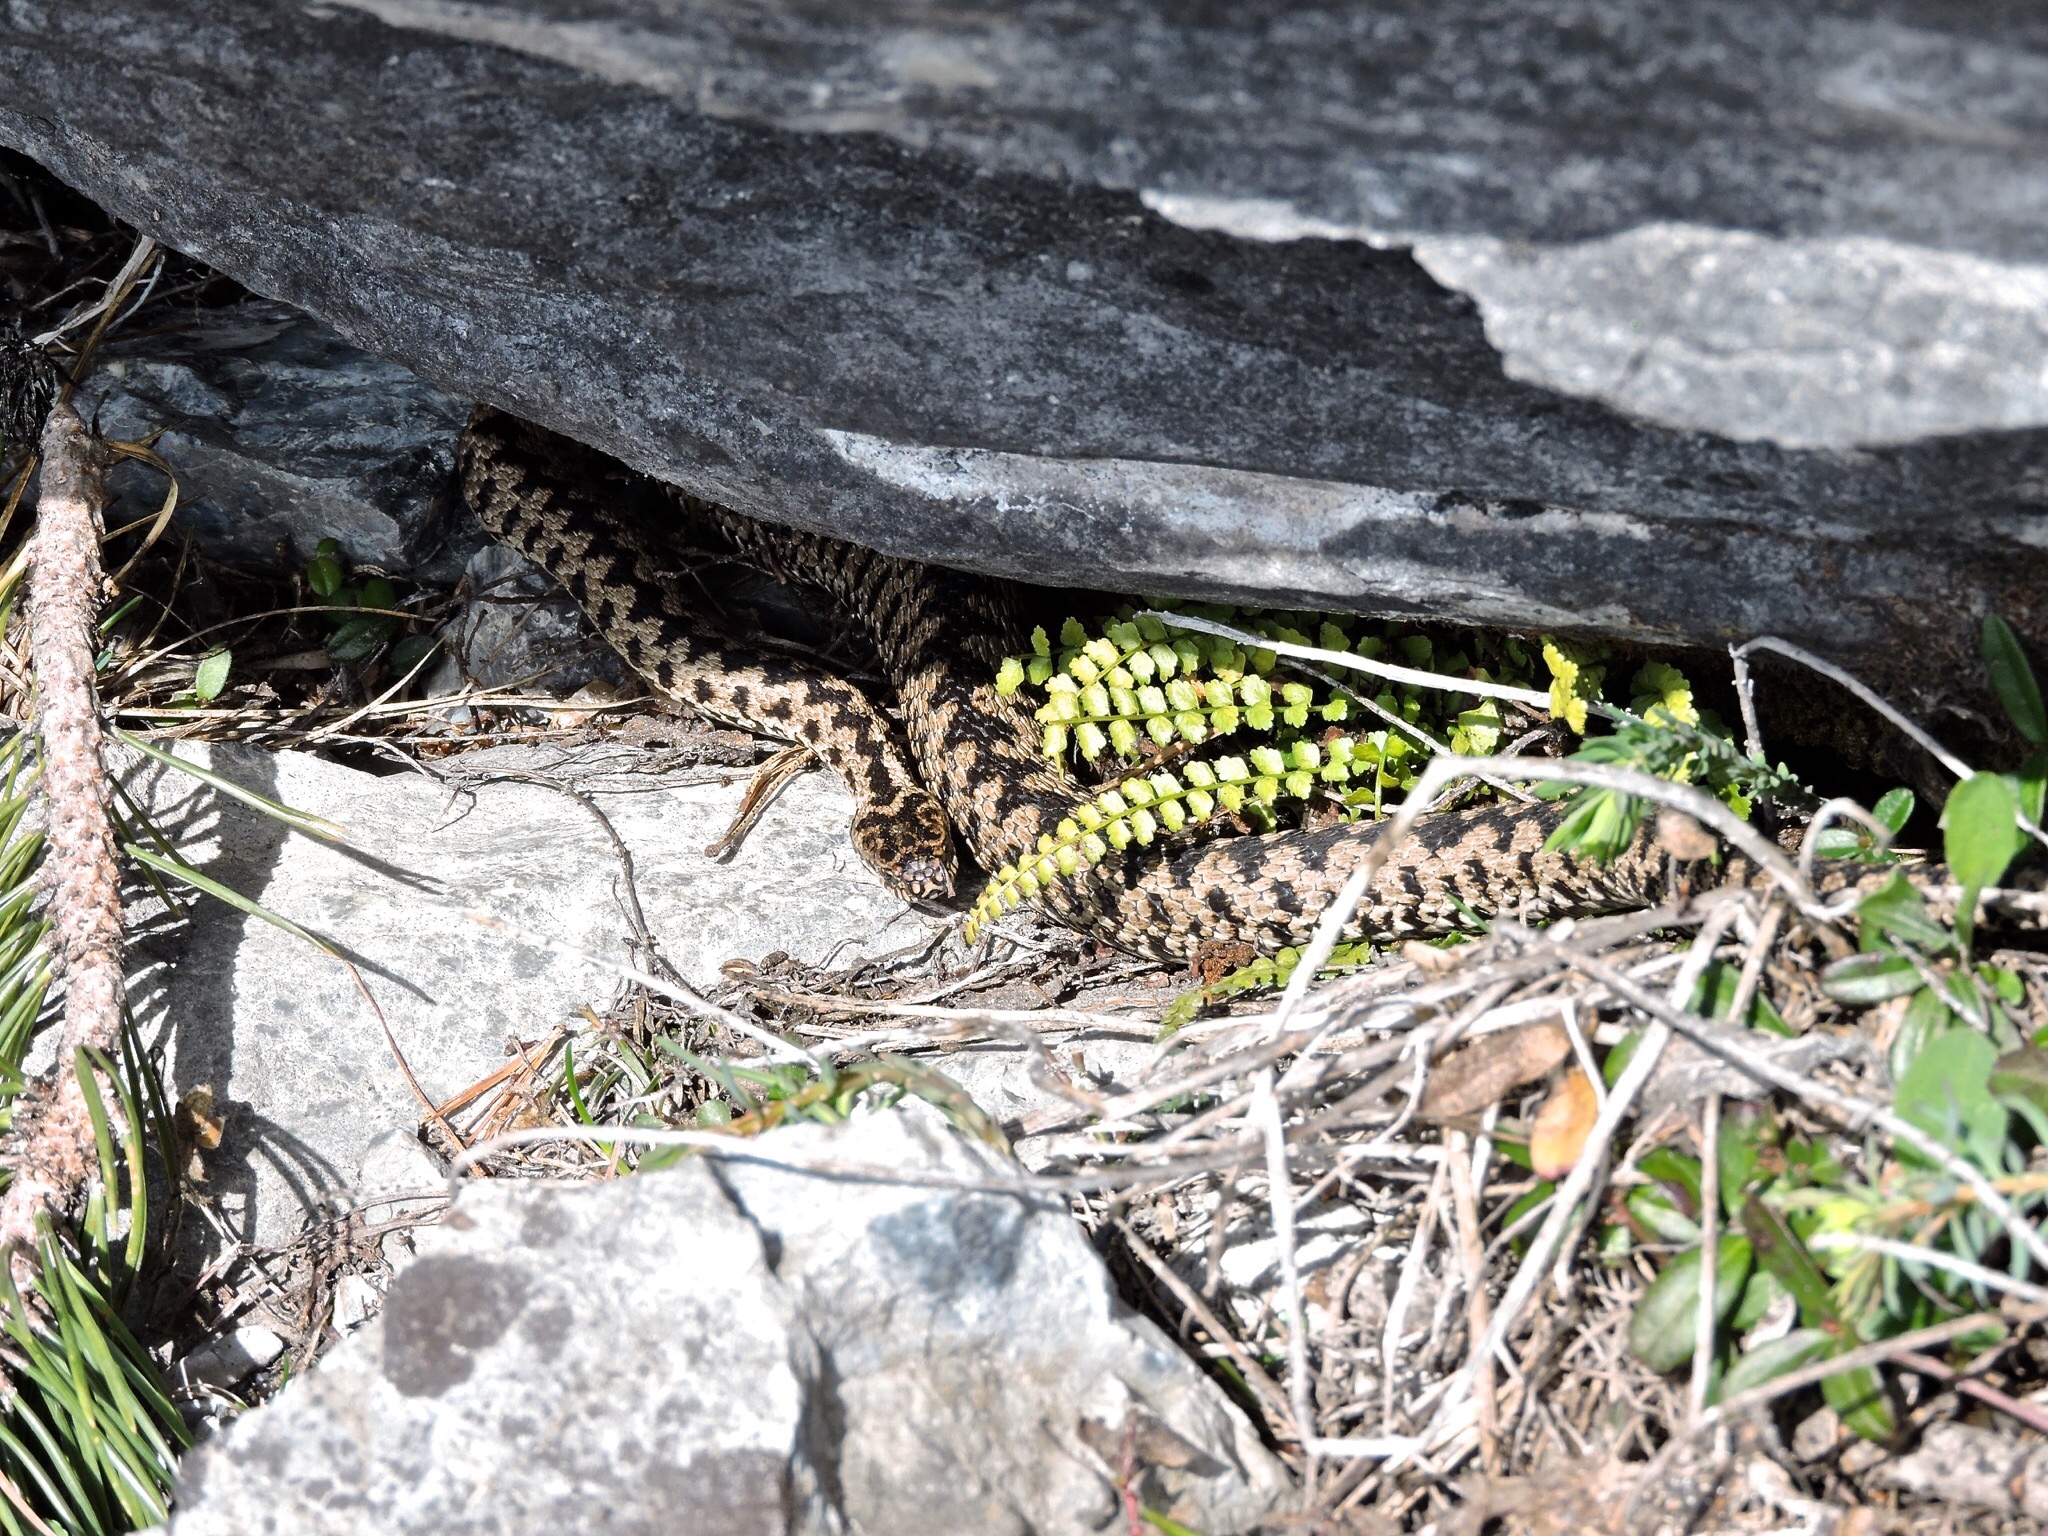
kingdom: Animalia
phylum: Chordata
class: Squamata
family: Viperidae
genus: Vipera
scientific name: Vipera berus
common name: Adder
